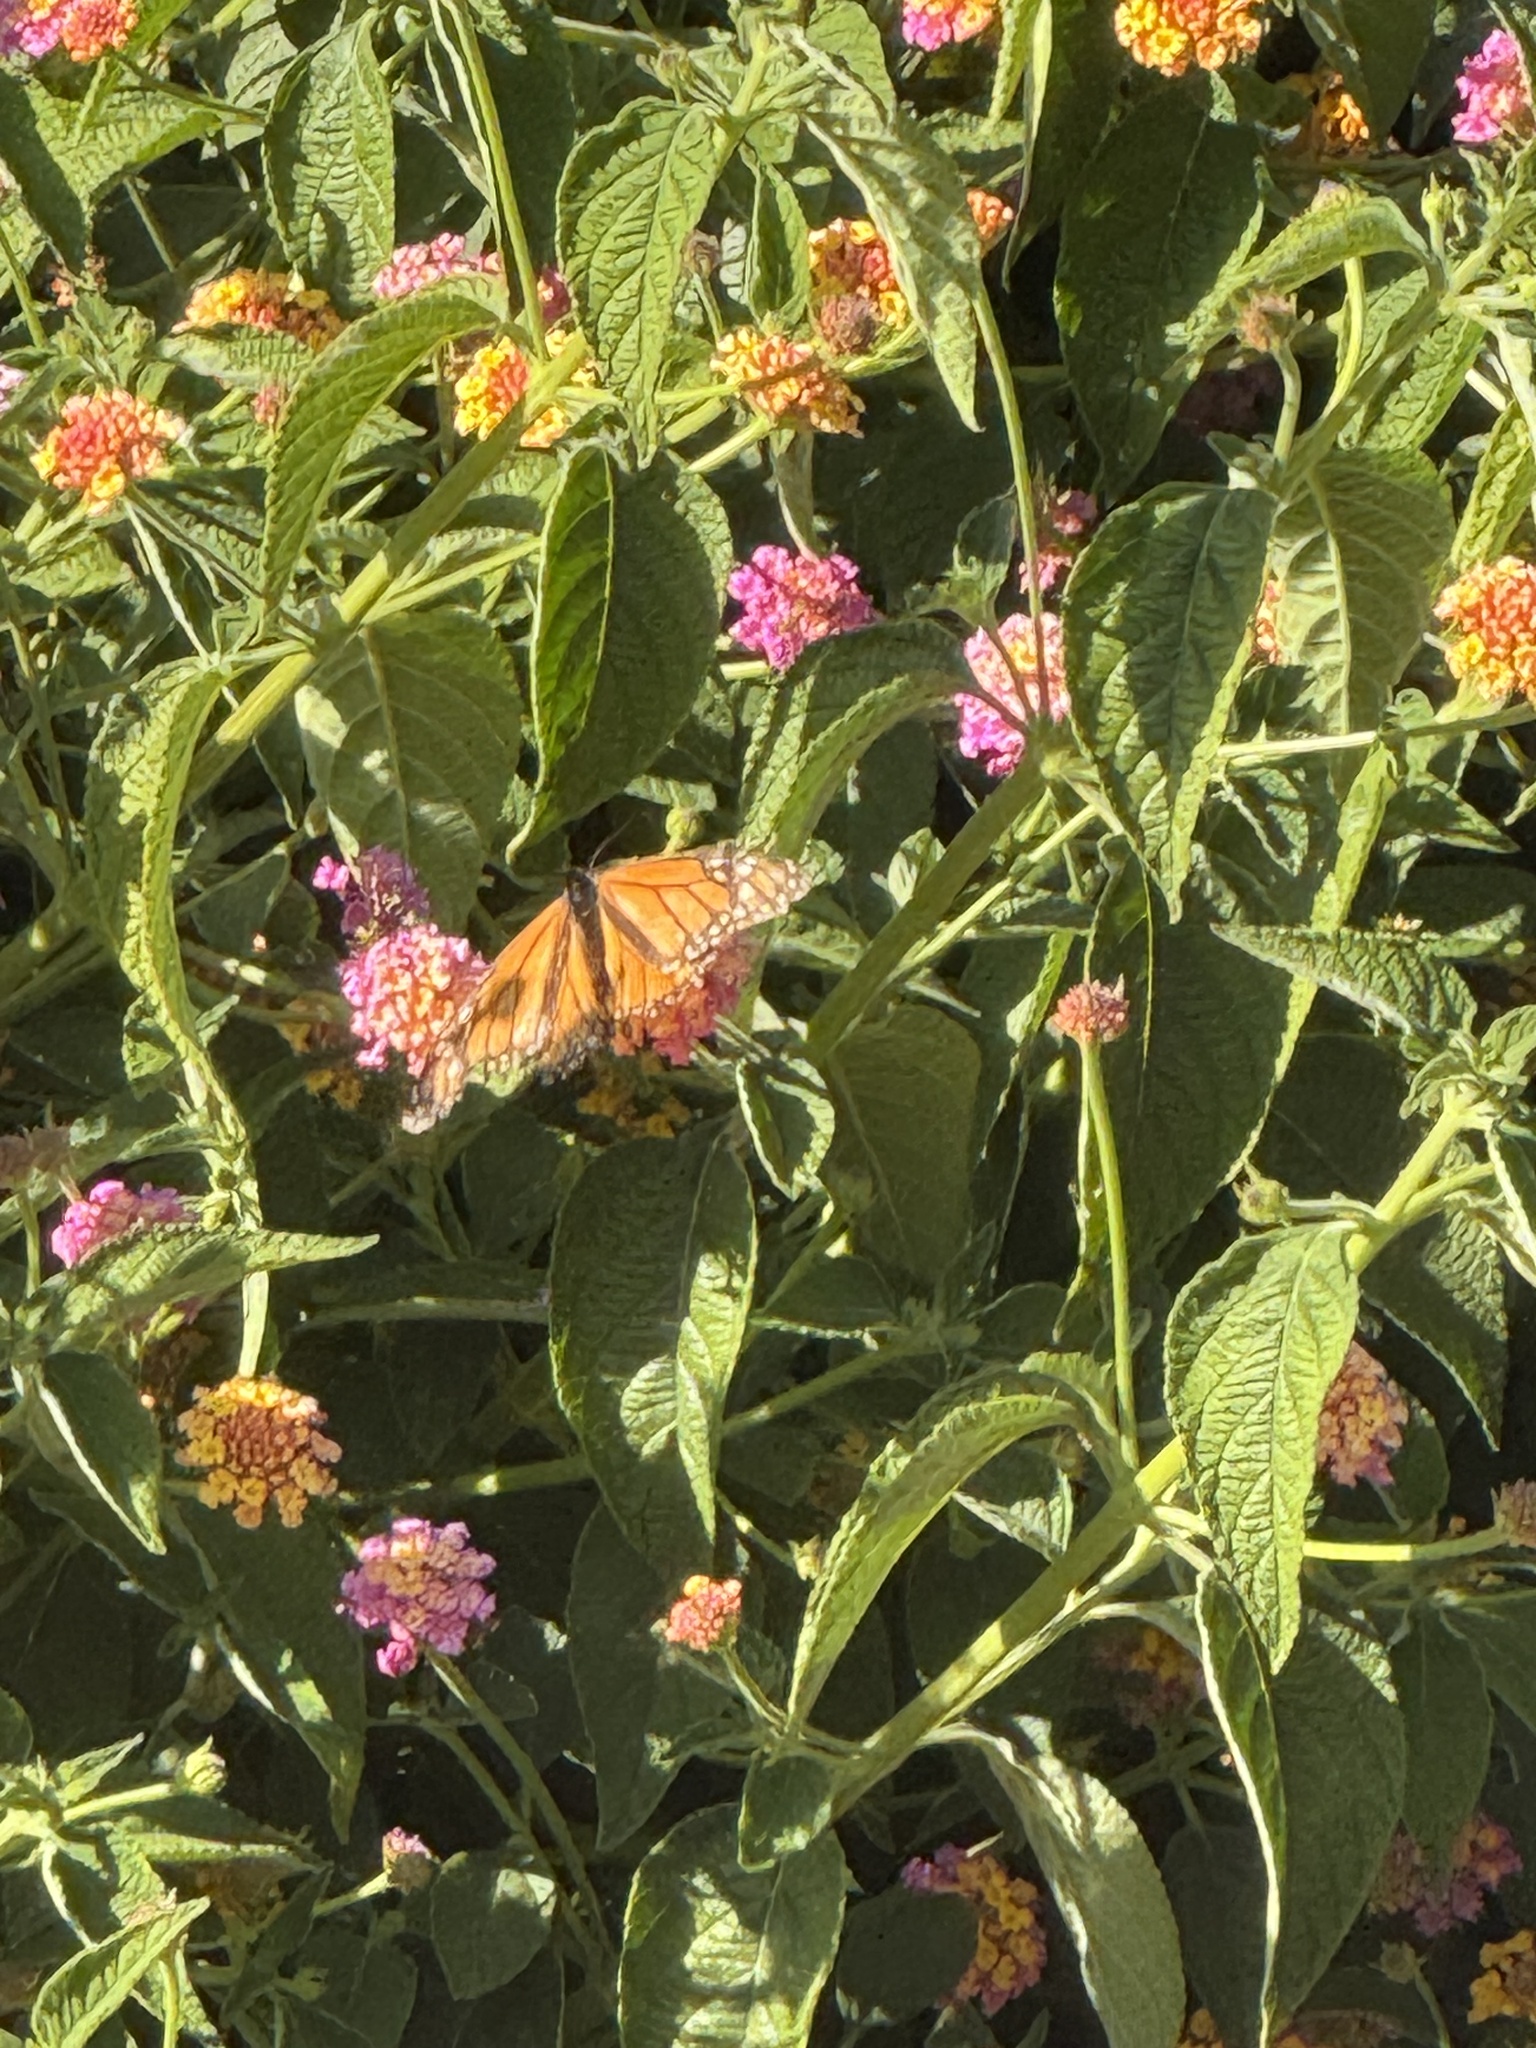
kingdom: Animalia
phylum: Arthropoda
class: Insecta
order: Lepidoptera
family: Nymphalidae
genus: Danaus
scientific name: Danaus plexippus
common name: Monarch
